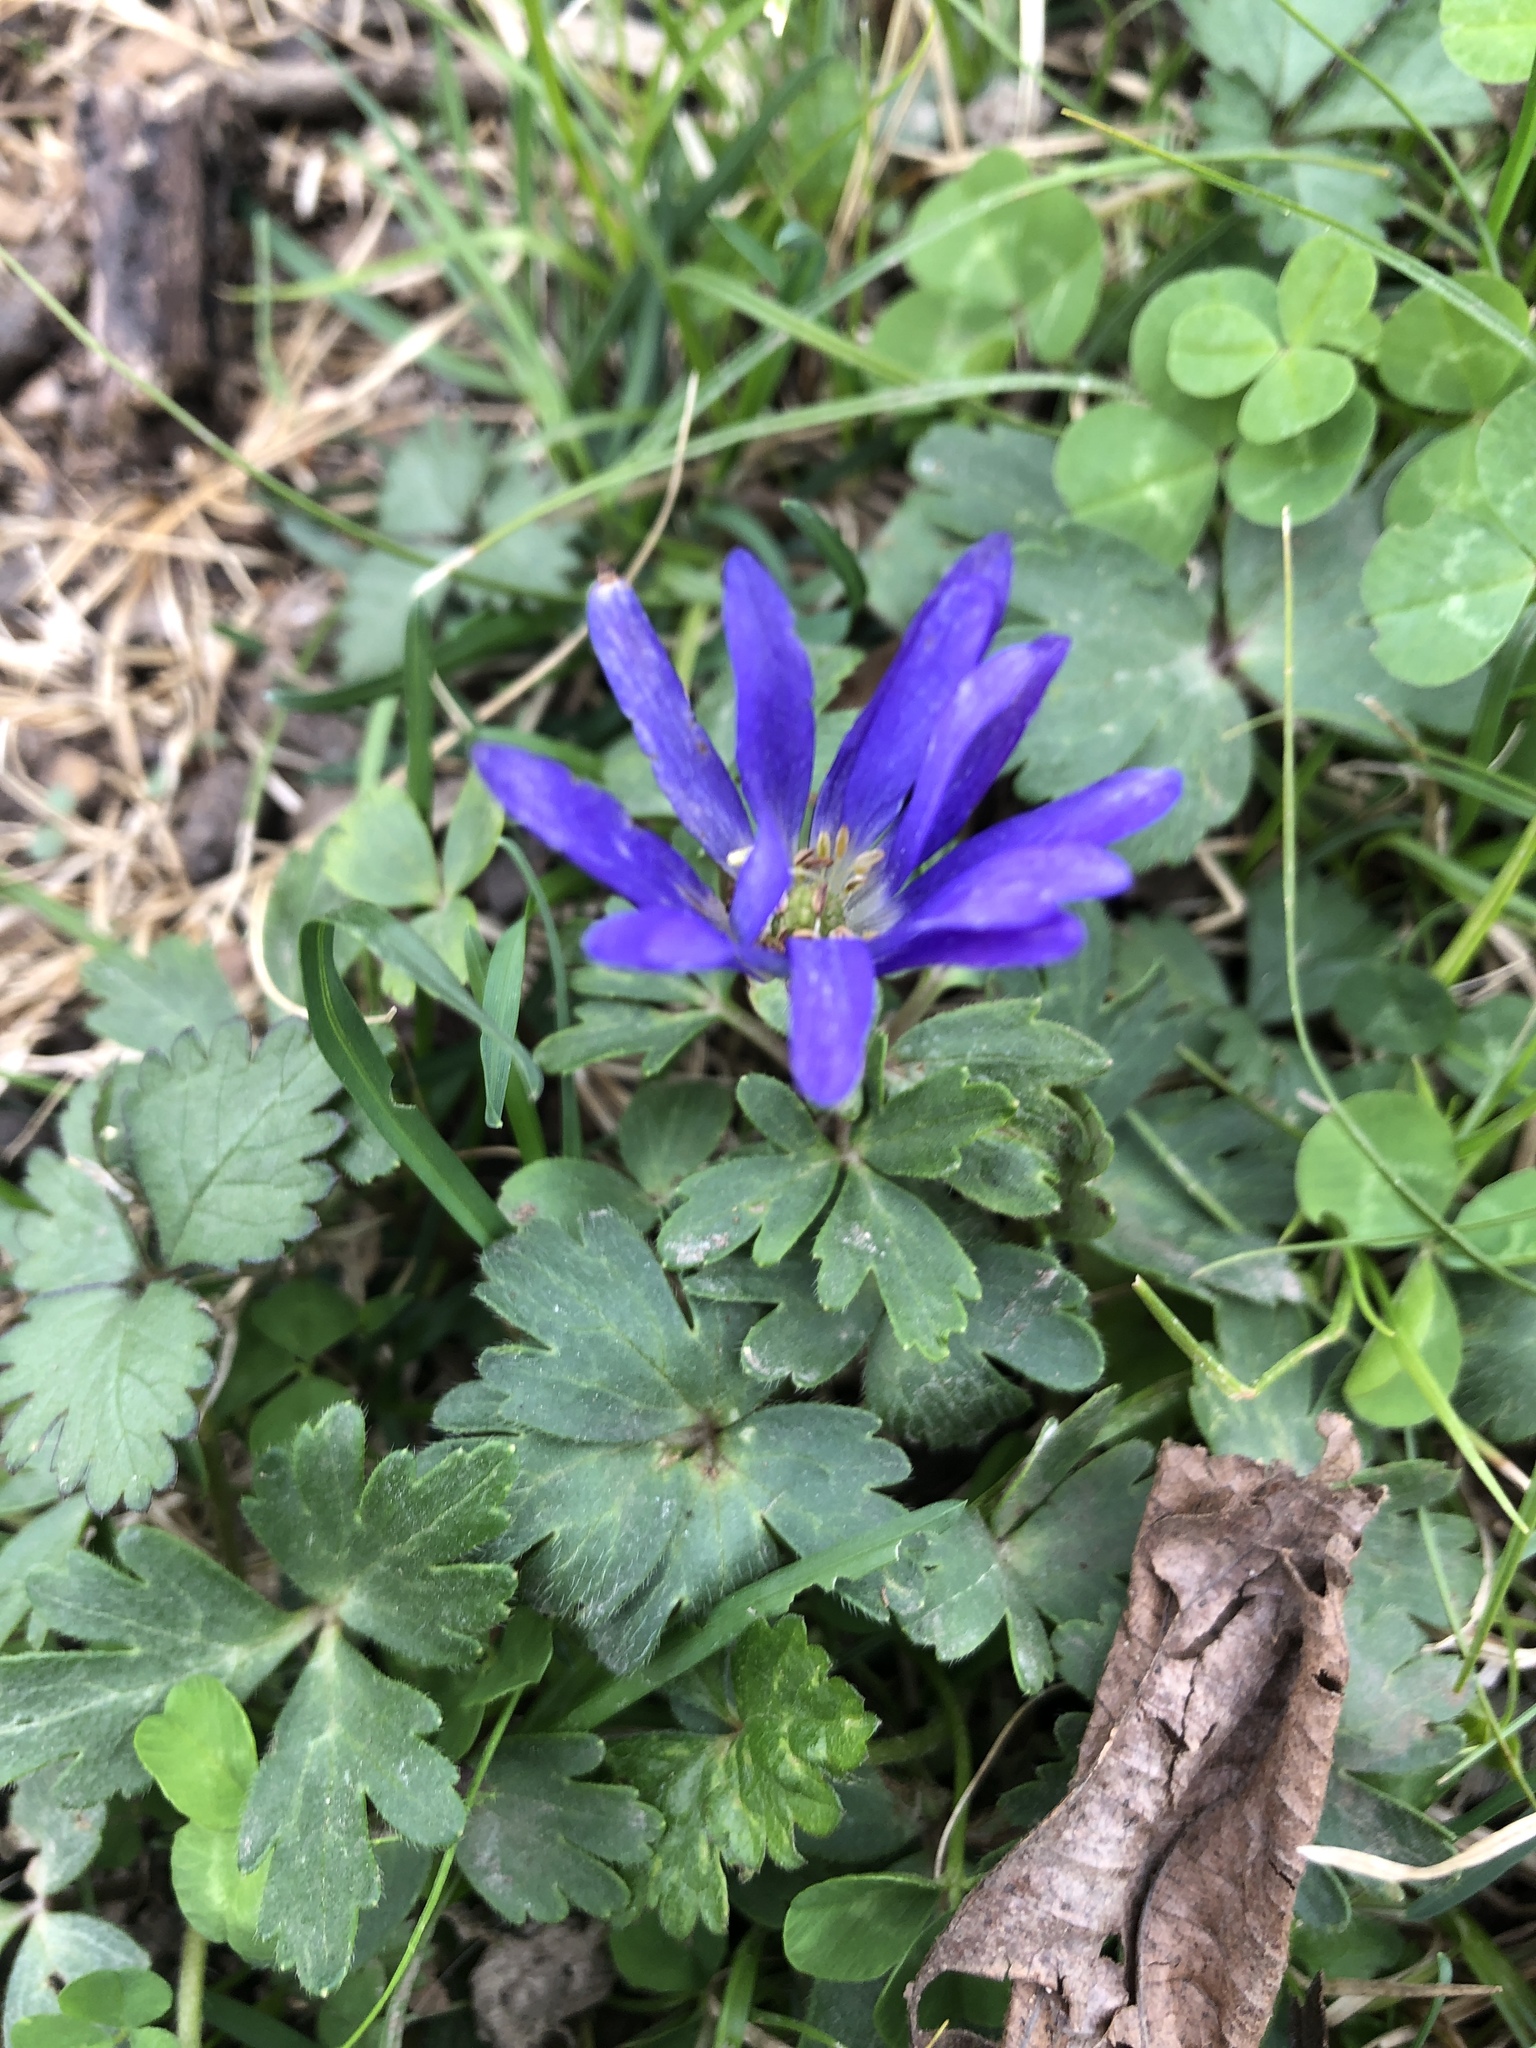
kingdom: Plantae
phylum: Tracheophyta
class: Magnoliopsida
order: Ranunculales
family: Ranunculaceae
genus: Anemone
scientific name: Anemone blanda
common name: Balkan anemone
